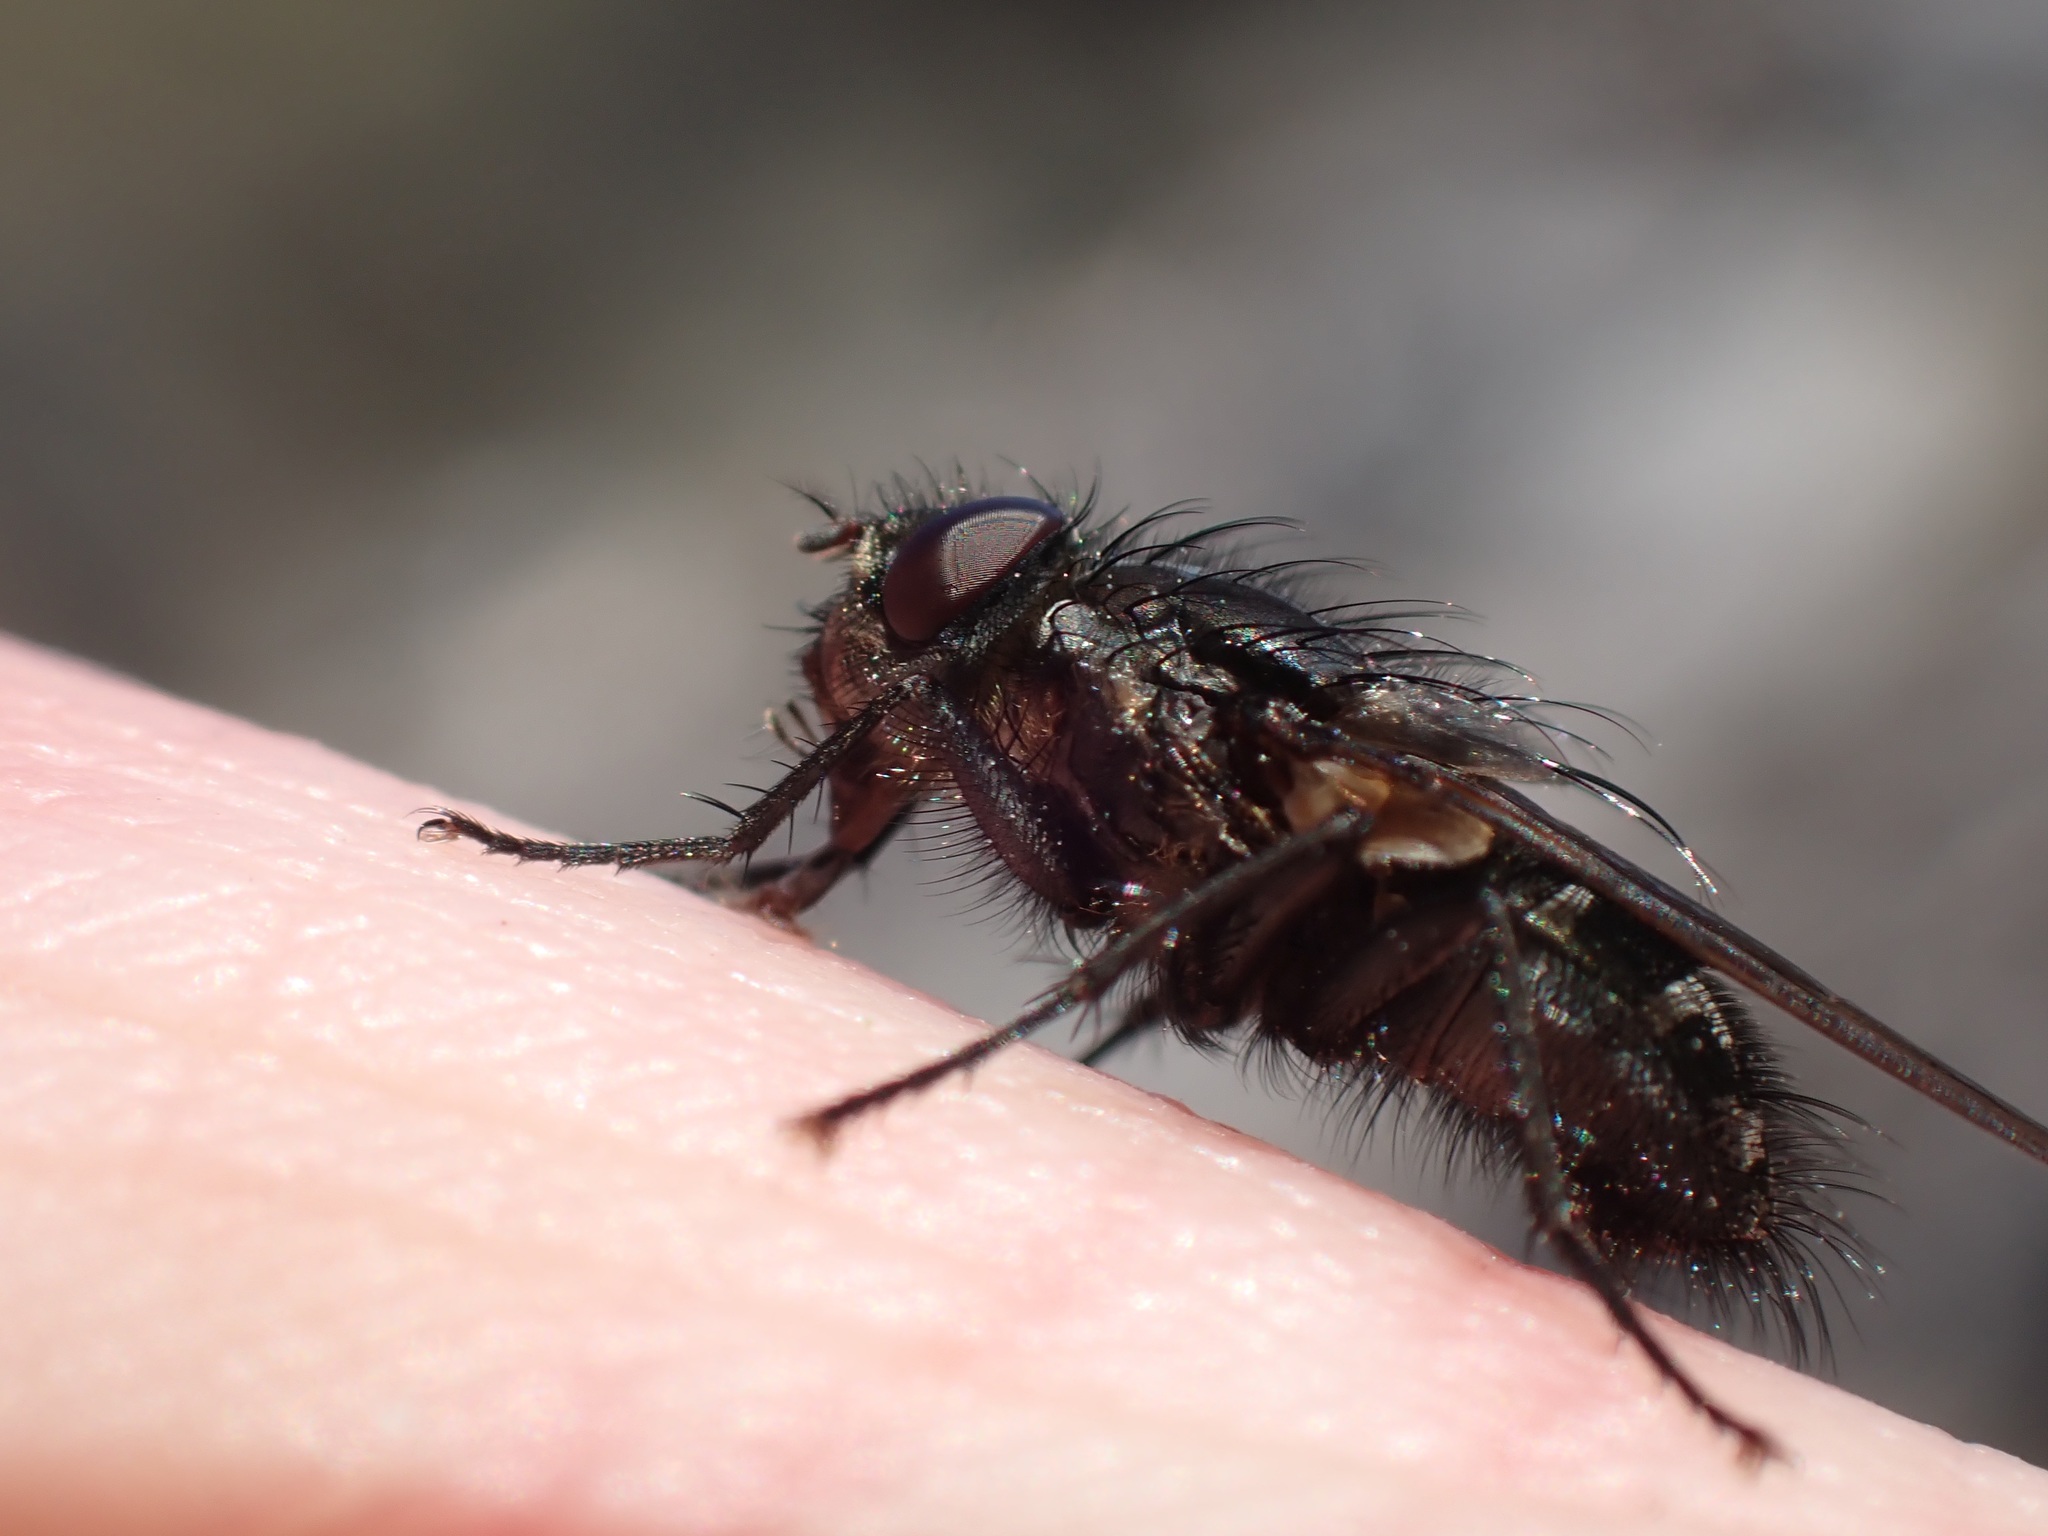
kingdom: Animalia
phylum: Arthropoda
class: Insecta
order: Diptera
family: Polleniidae
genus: Pollenia
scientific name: Pollenia vagabunda
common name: Vagabund cluster fly
